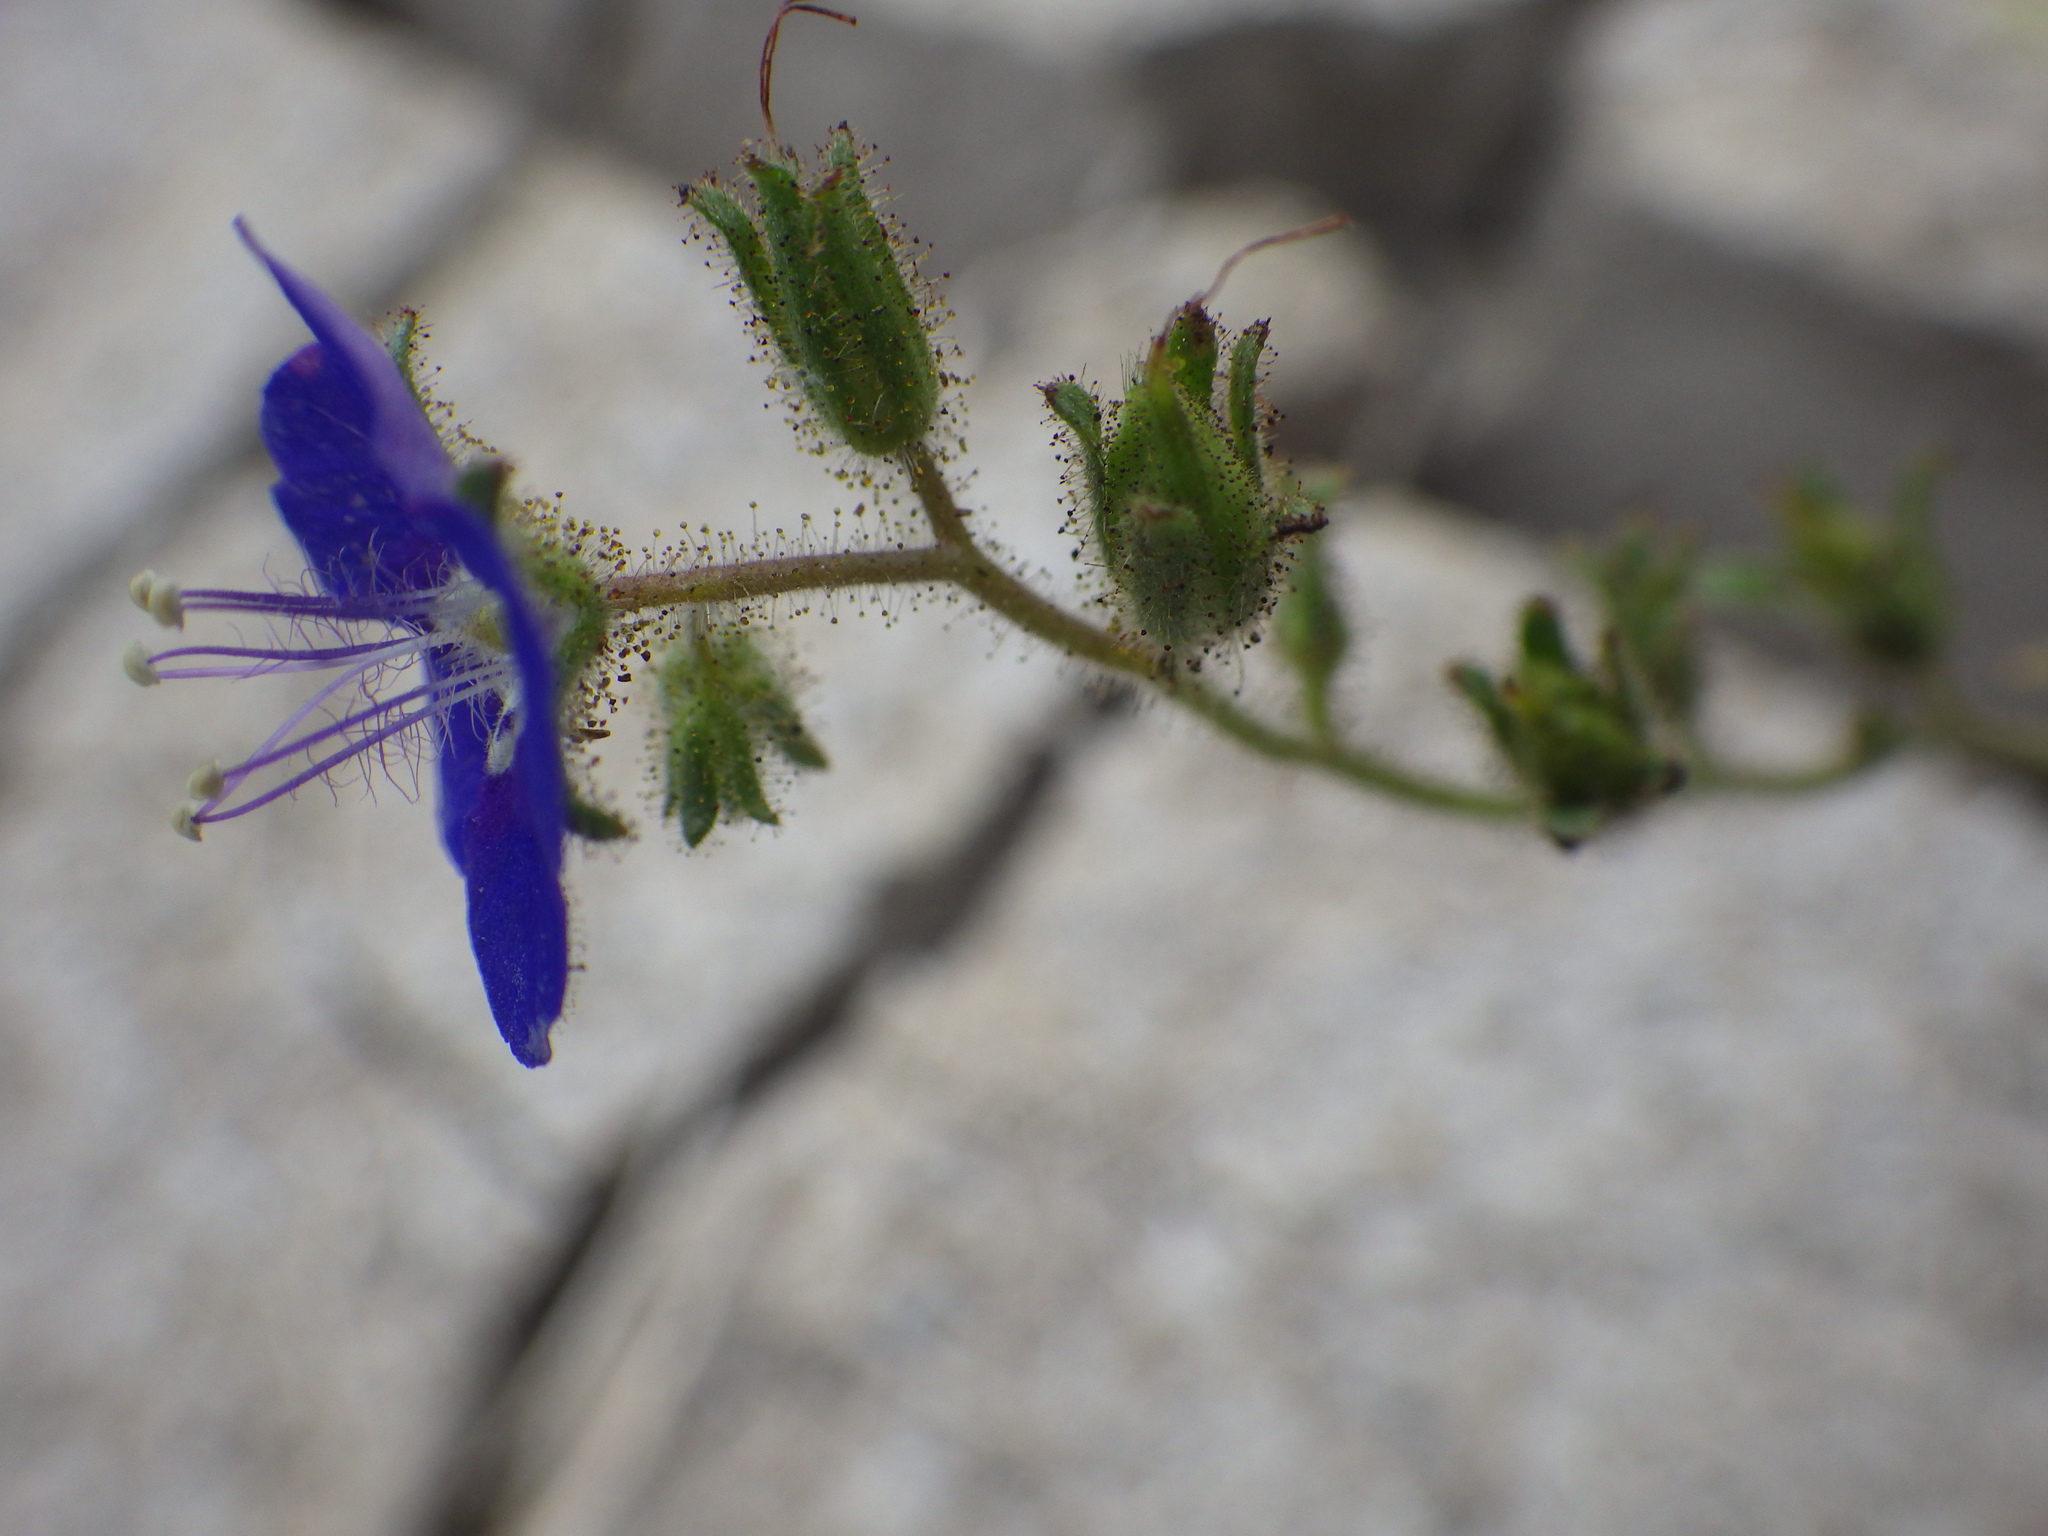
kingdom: Plantae
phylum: Tracheophyta
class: Magnoliopsida
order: Boraginales
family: Hydrophyllaceae
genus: Phacelia
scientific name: Phacelia viscida
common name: Sticky phacelia
